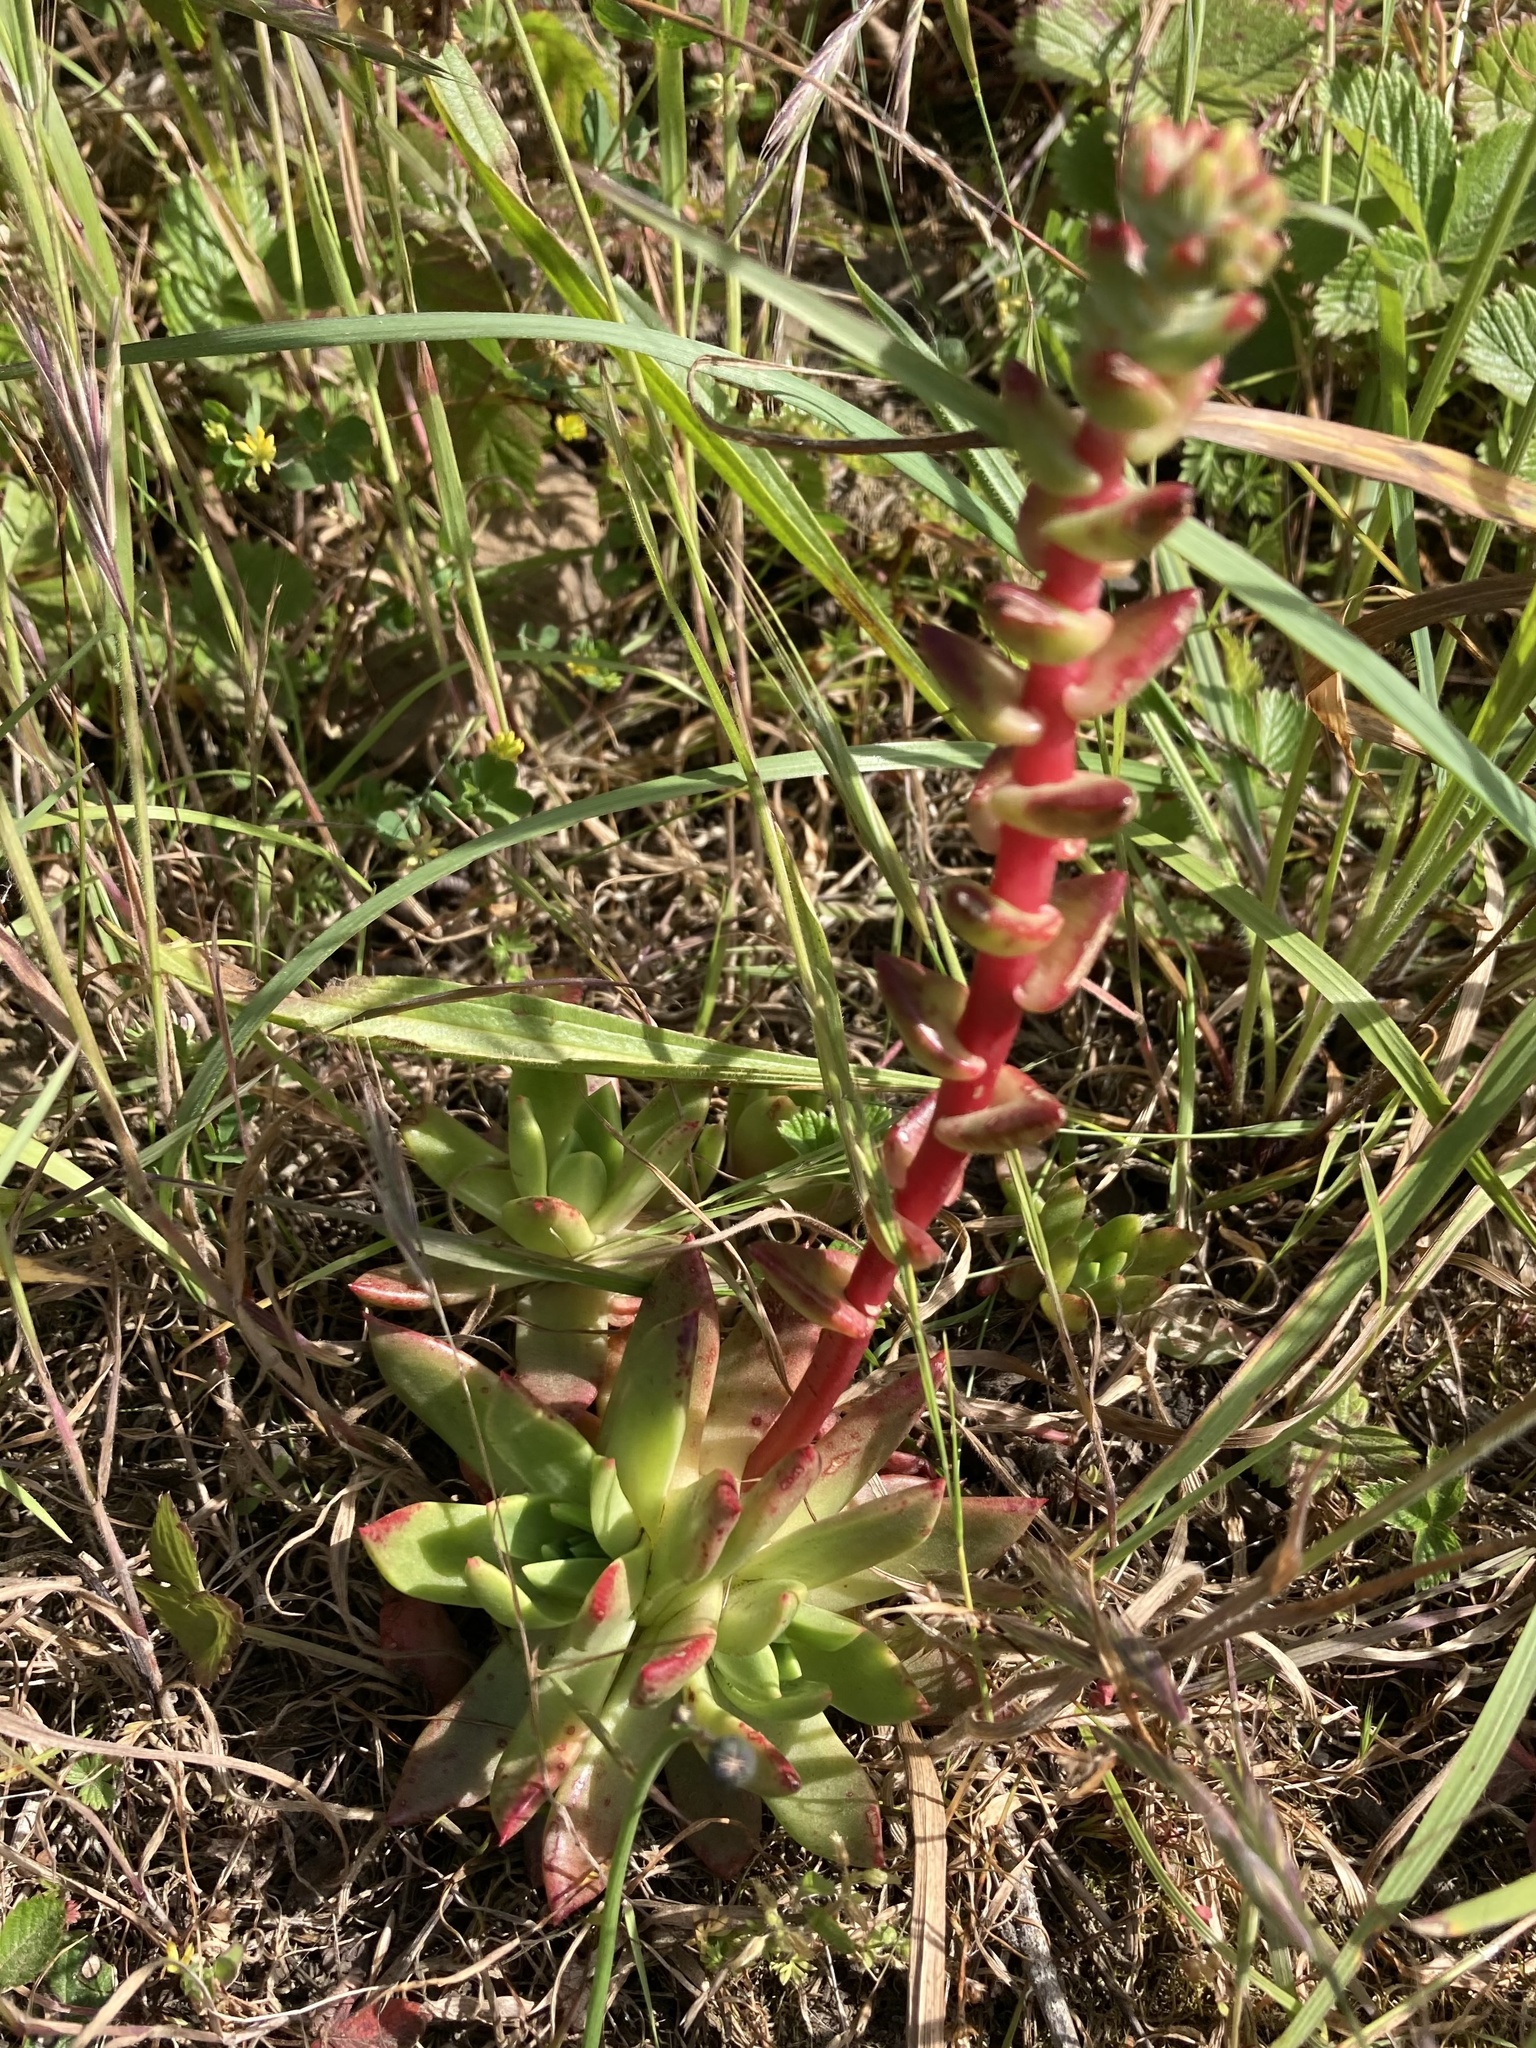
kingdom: Plantae
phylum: Tracheophyta
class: Magnoliopsida
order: Saxifragales
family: Crassulaceae
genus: Dudleya
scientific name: Dudleya farinosa
